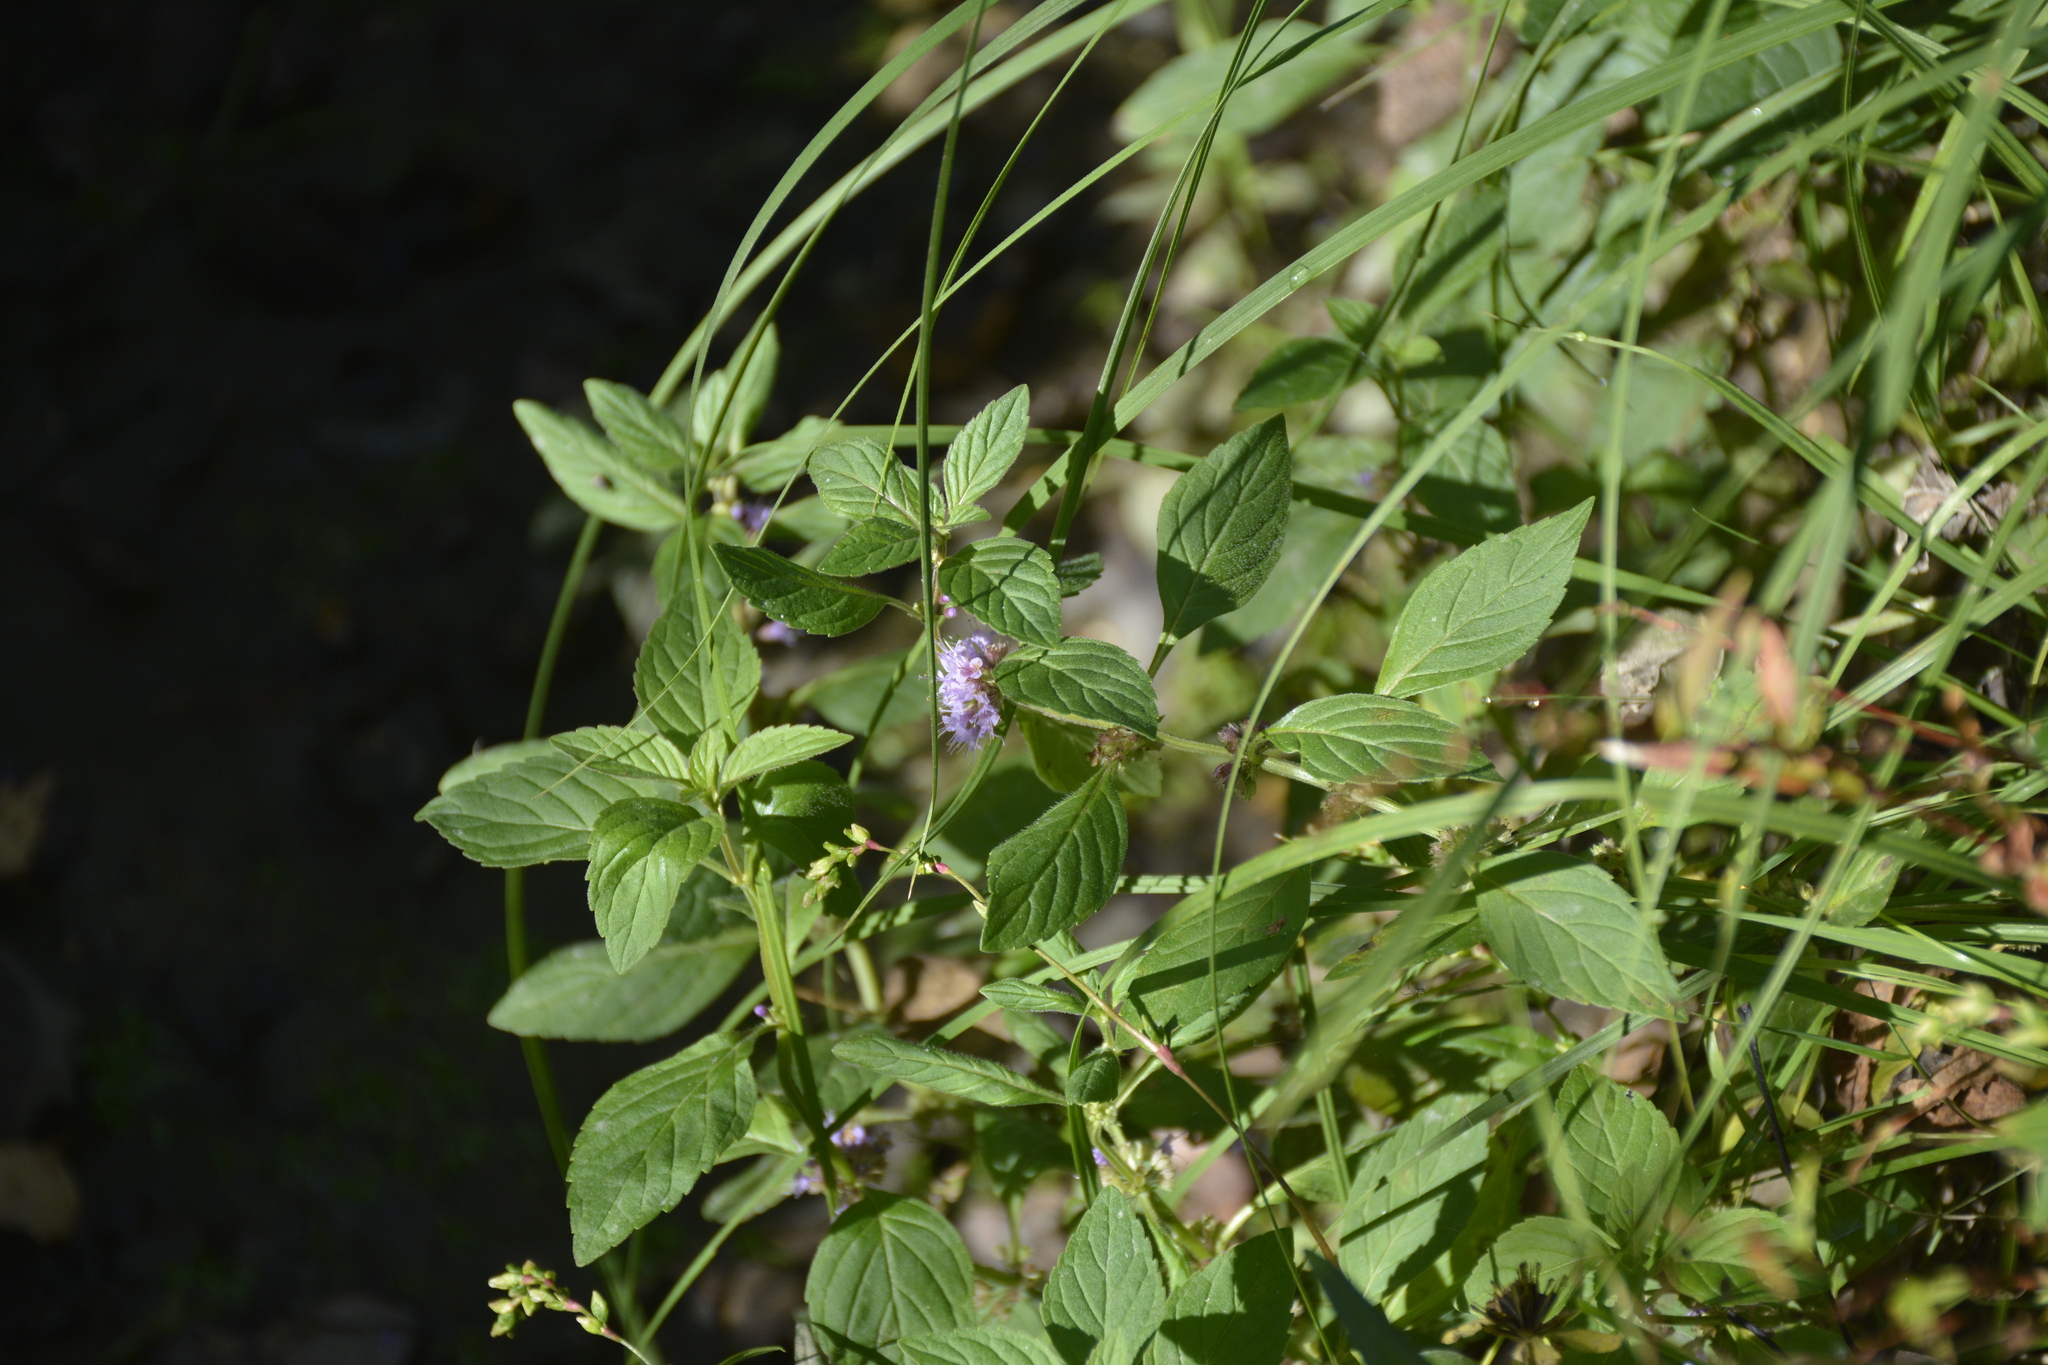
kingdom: Plantae
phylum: Tracheophyta
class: Magnoliopsida
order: Lamiales
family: Lamiaceae
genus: Mentha
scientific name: Mentha arvensis
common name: Corn mint
